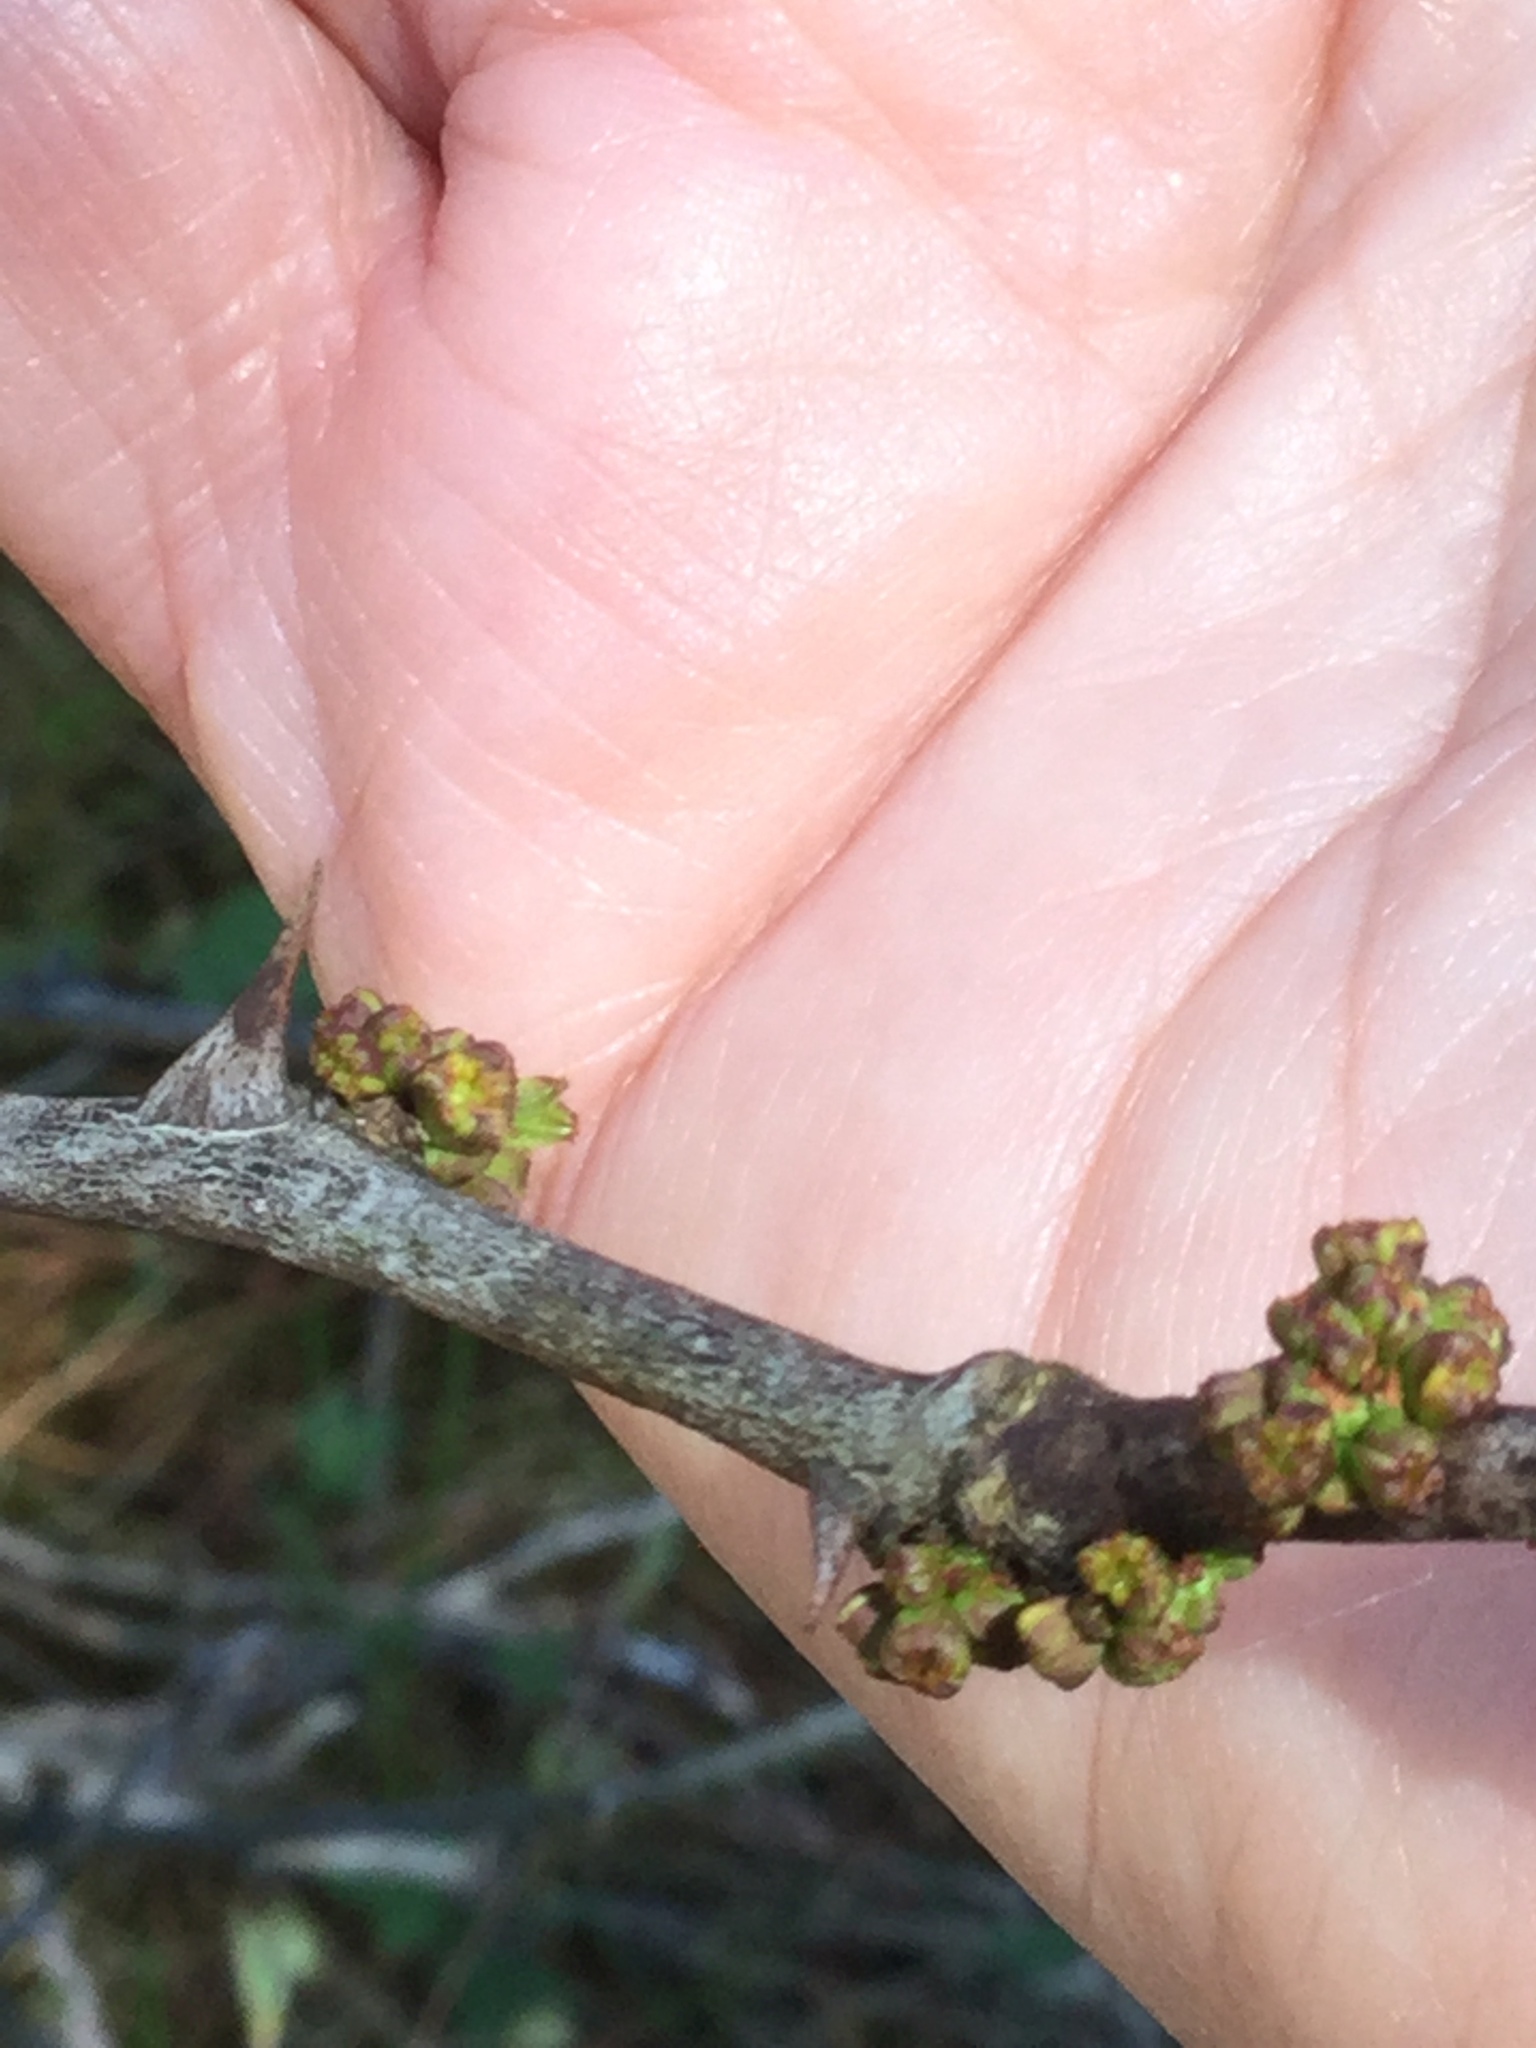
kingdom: Plantae
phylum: Tracheophyta
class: Magnoliopsida
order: Sapindales
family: Rutaceae
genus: Zanthoxylum
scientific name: Zanthoxylum americanum
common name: Northern prickly-ash
